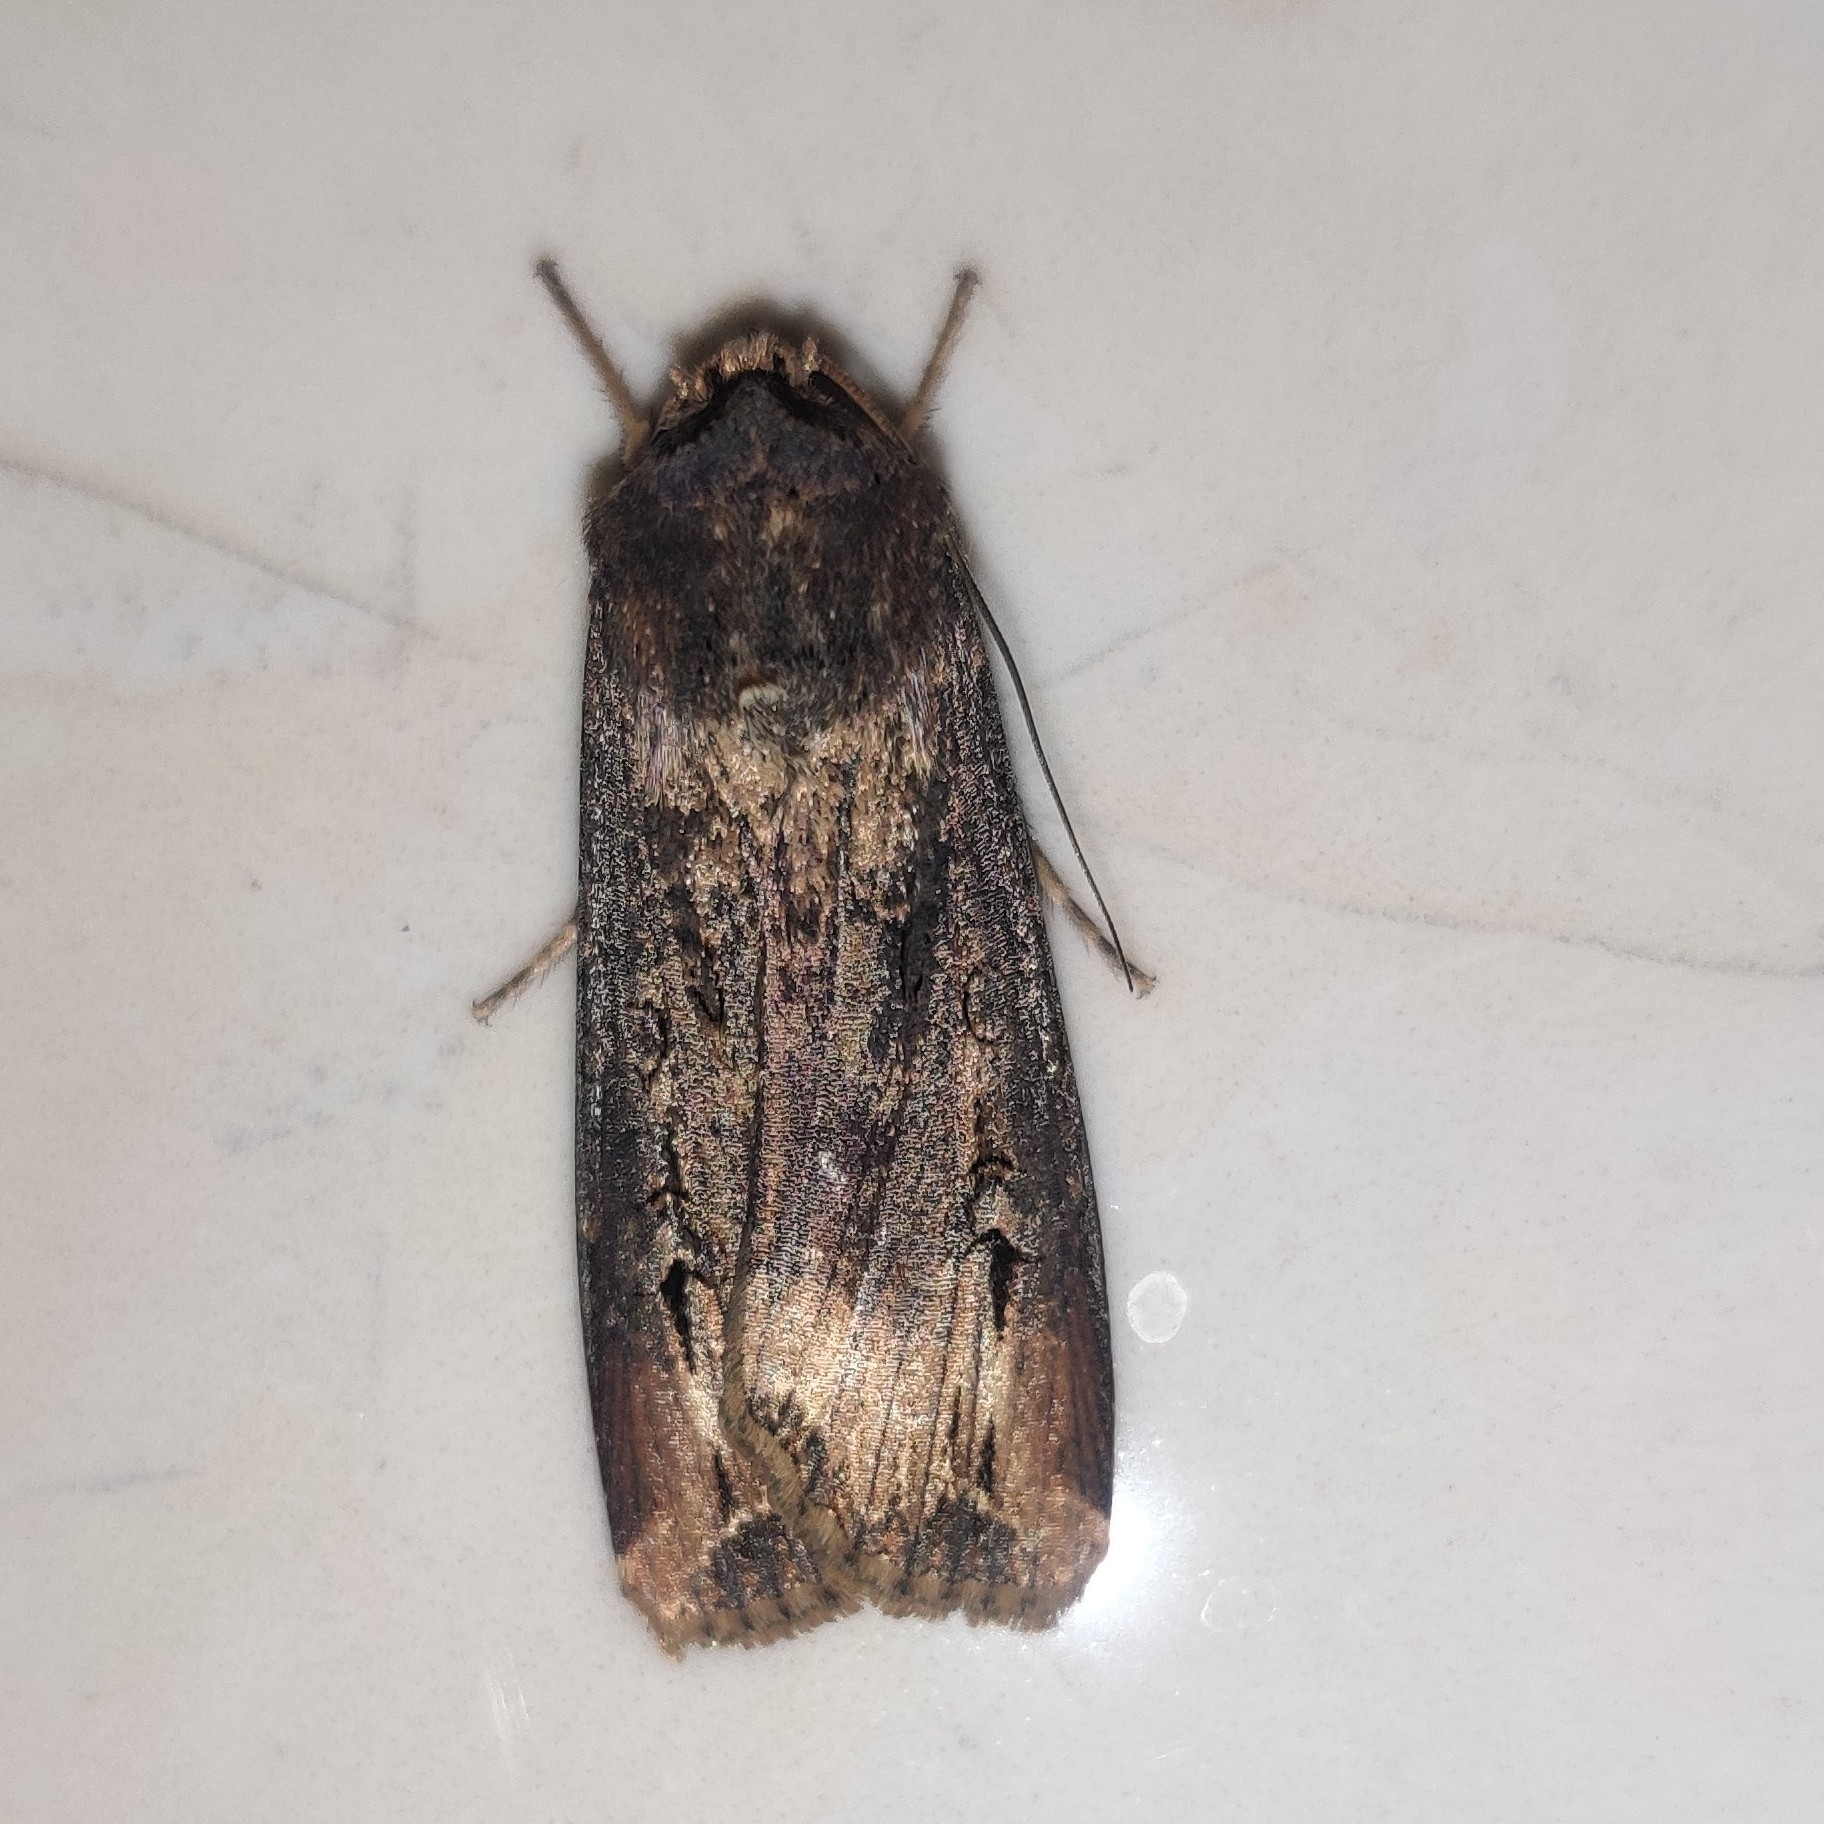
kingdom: Animalia
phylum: Arthropoda
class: Insecta
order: Lepidoptera
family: Noctuidae
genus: Agrotis
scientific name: Agrotis ipsilon
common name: Dark sword-grass
